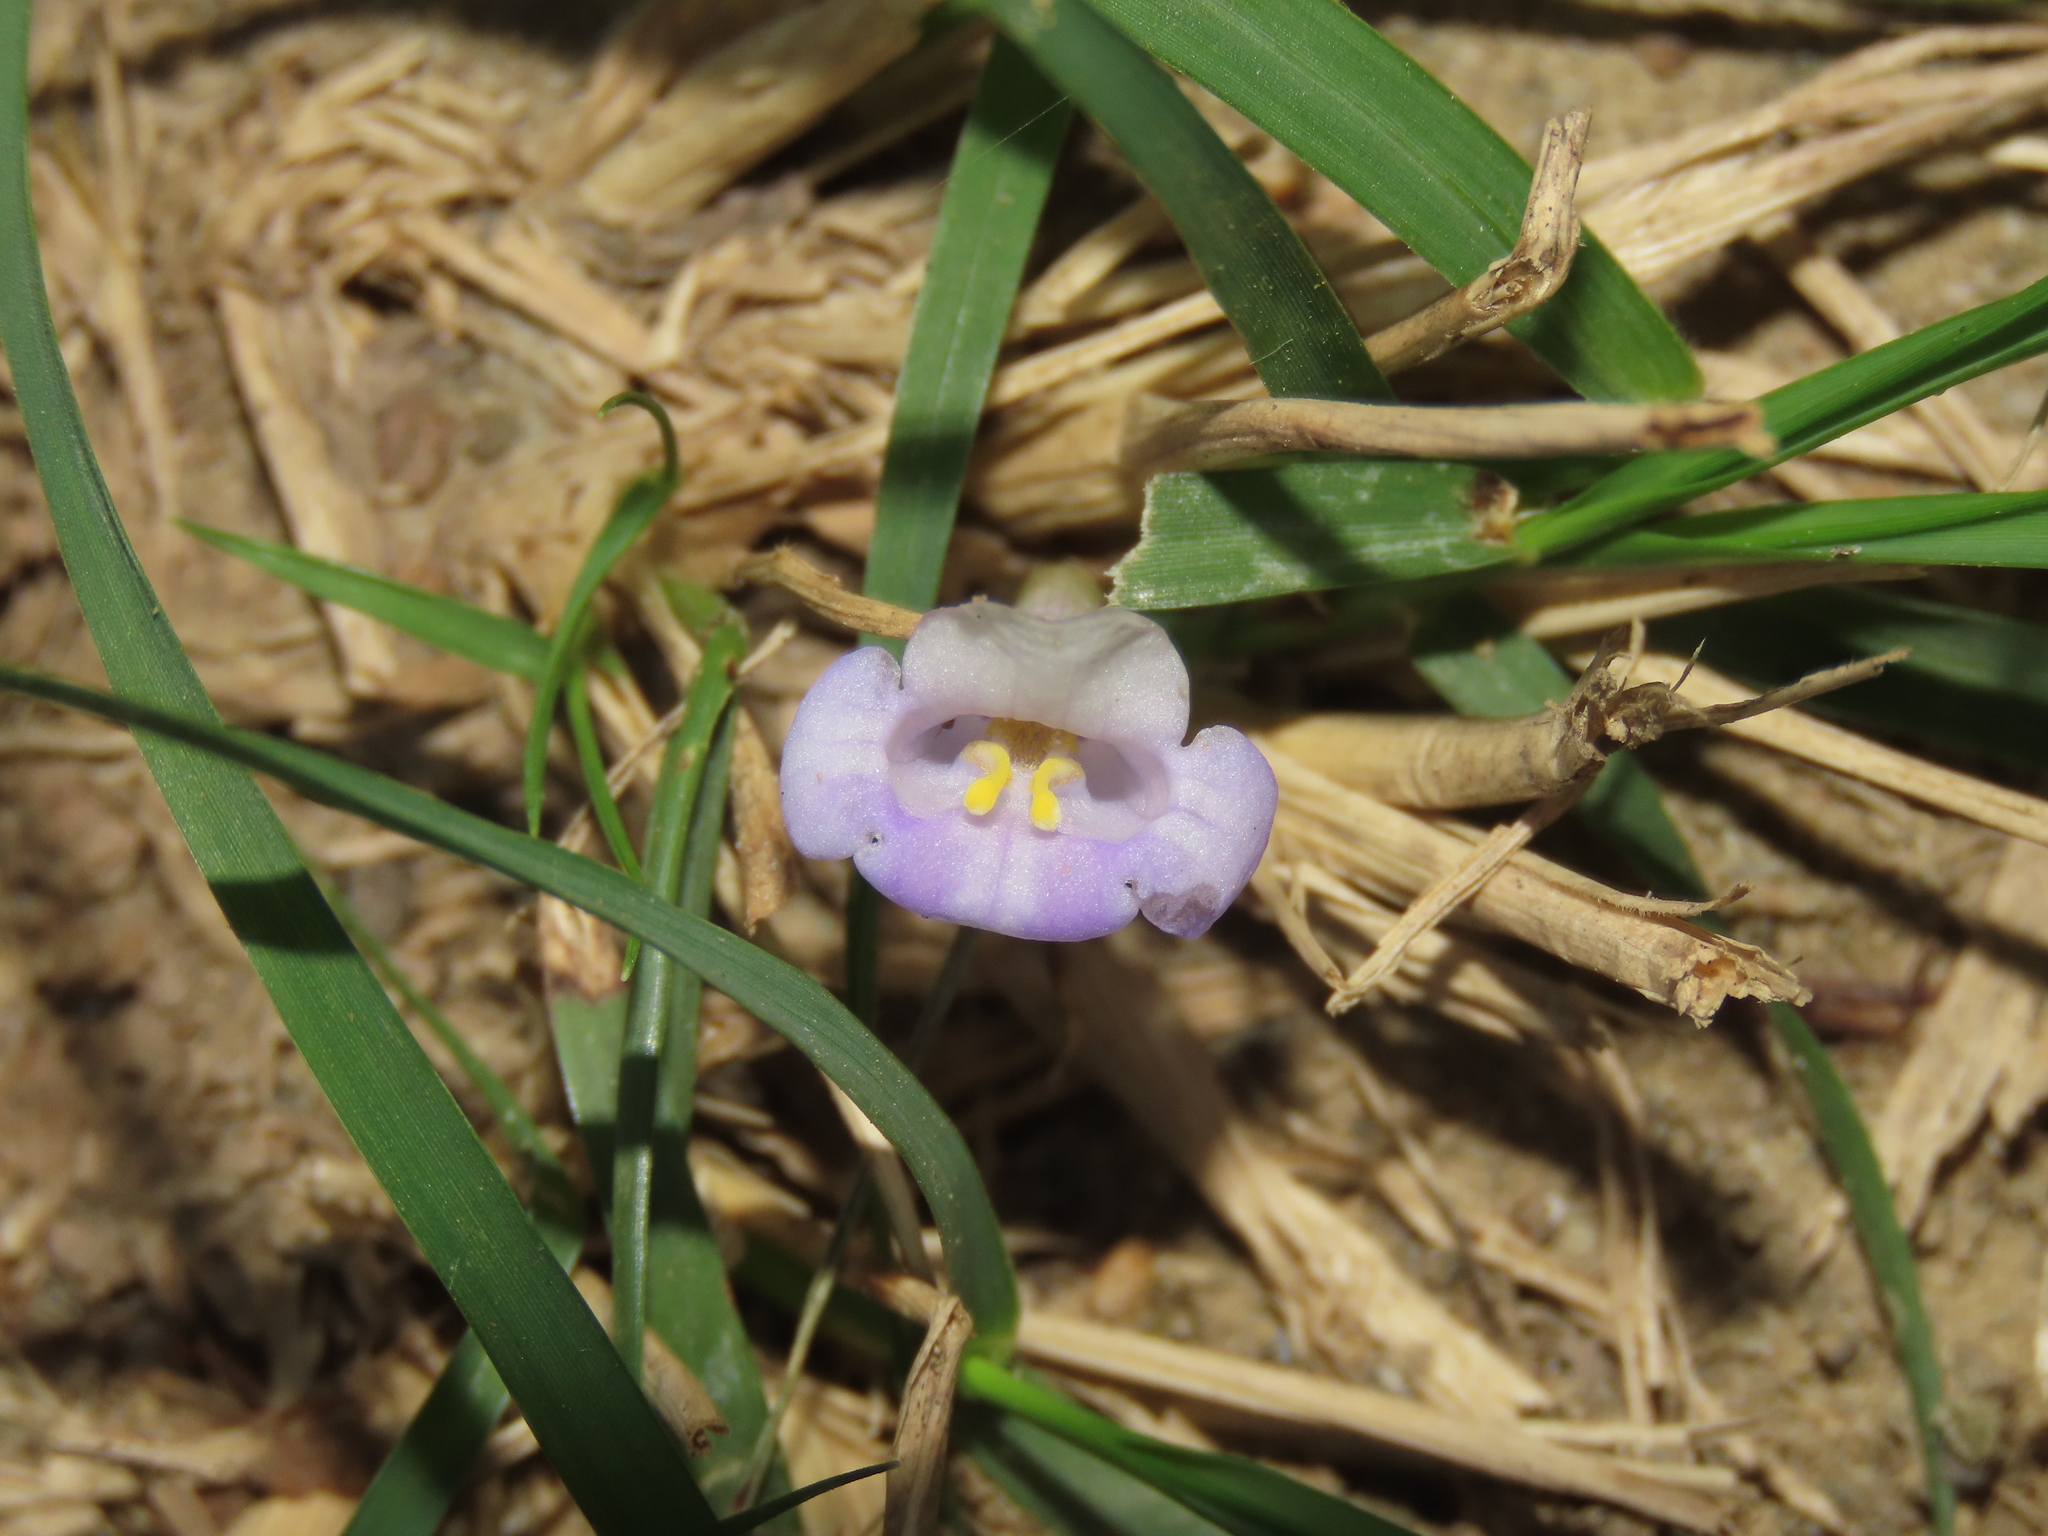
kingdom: Plantae
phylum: Tracheophyta
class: Magnoliopsida
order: Lamiales
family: Linderniaceae
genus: Bonnaya
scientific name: Bonnaya ruelloides
